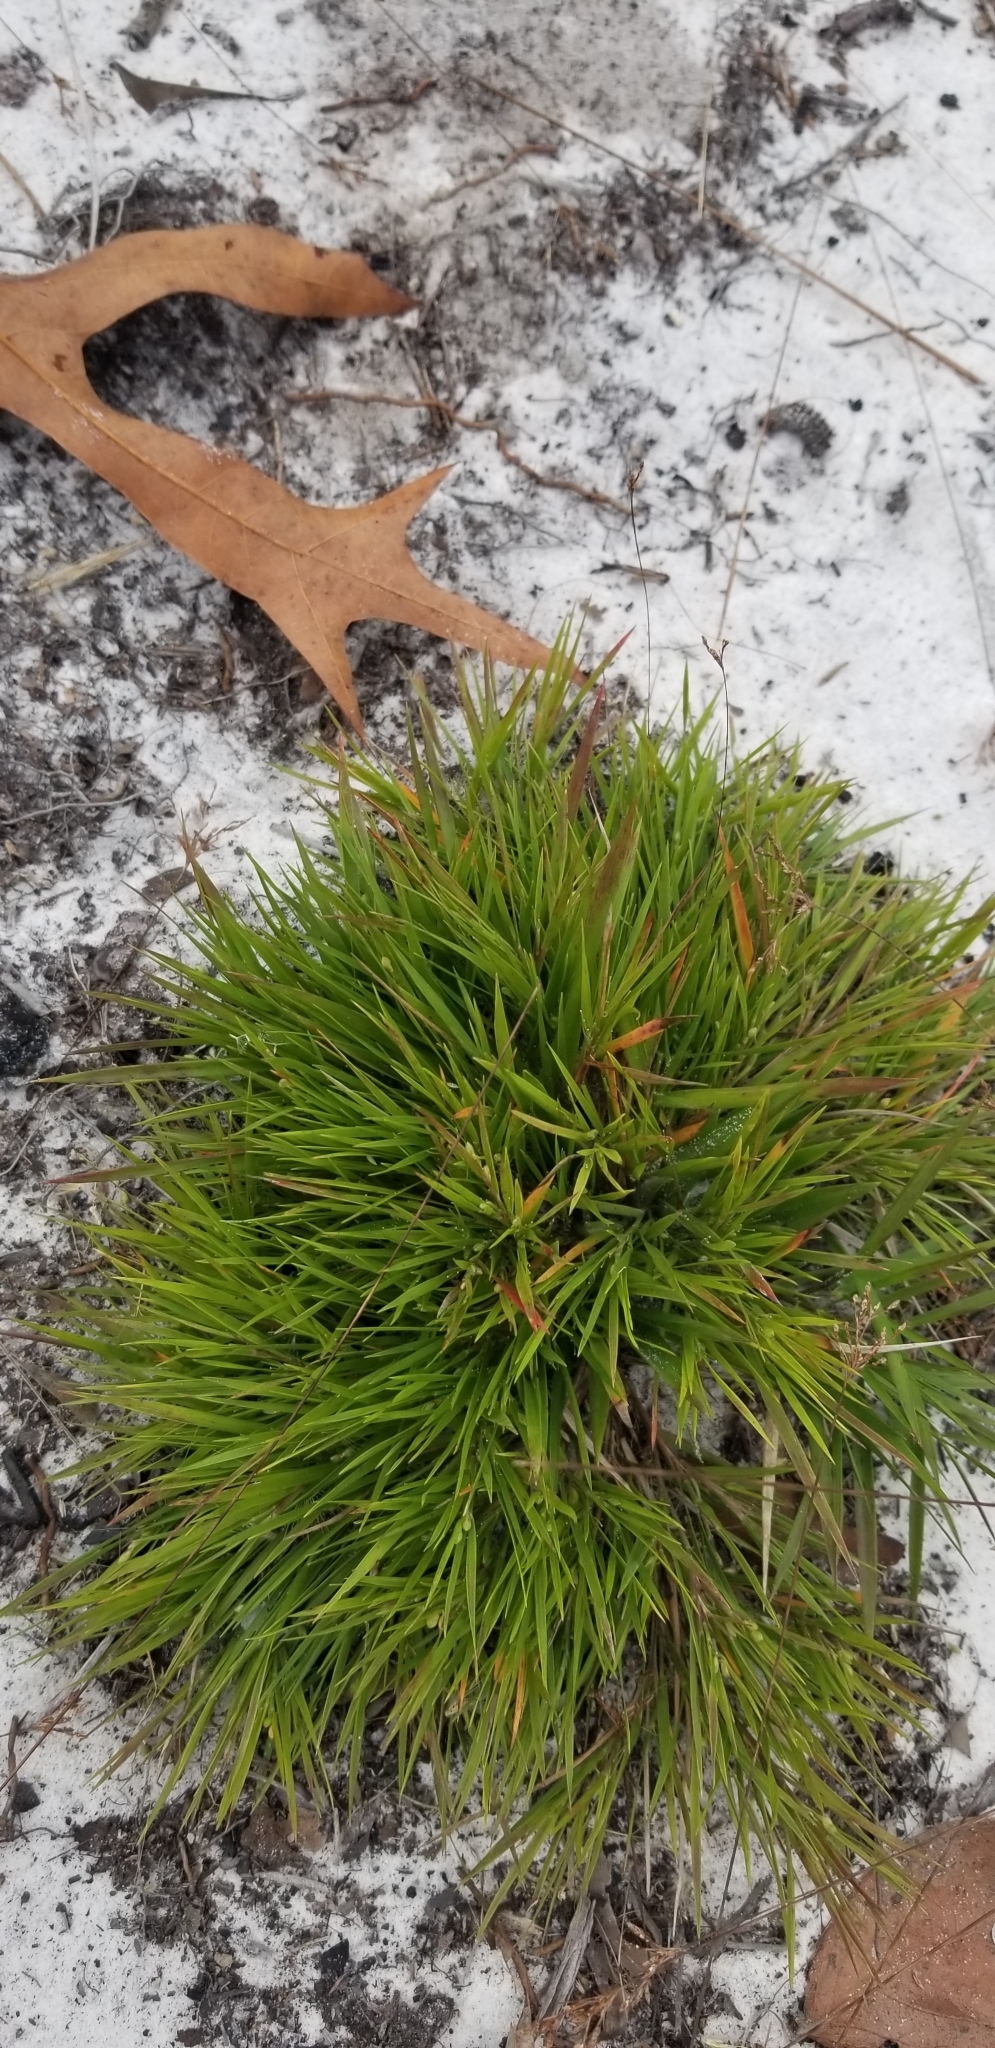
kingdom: Plantae
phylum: Tracheophyta
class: Liliopsida
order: Poales
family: Poaceae
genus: Dichanthelium
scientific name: Dichanthelium aciculare
